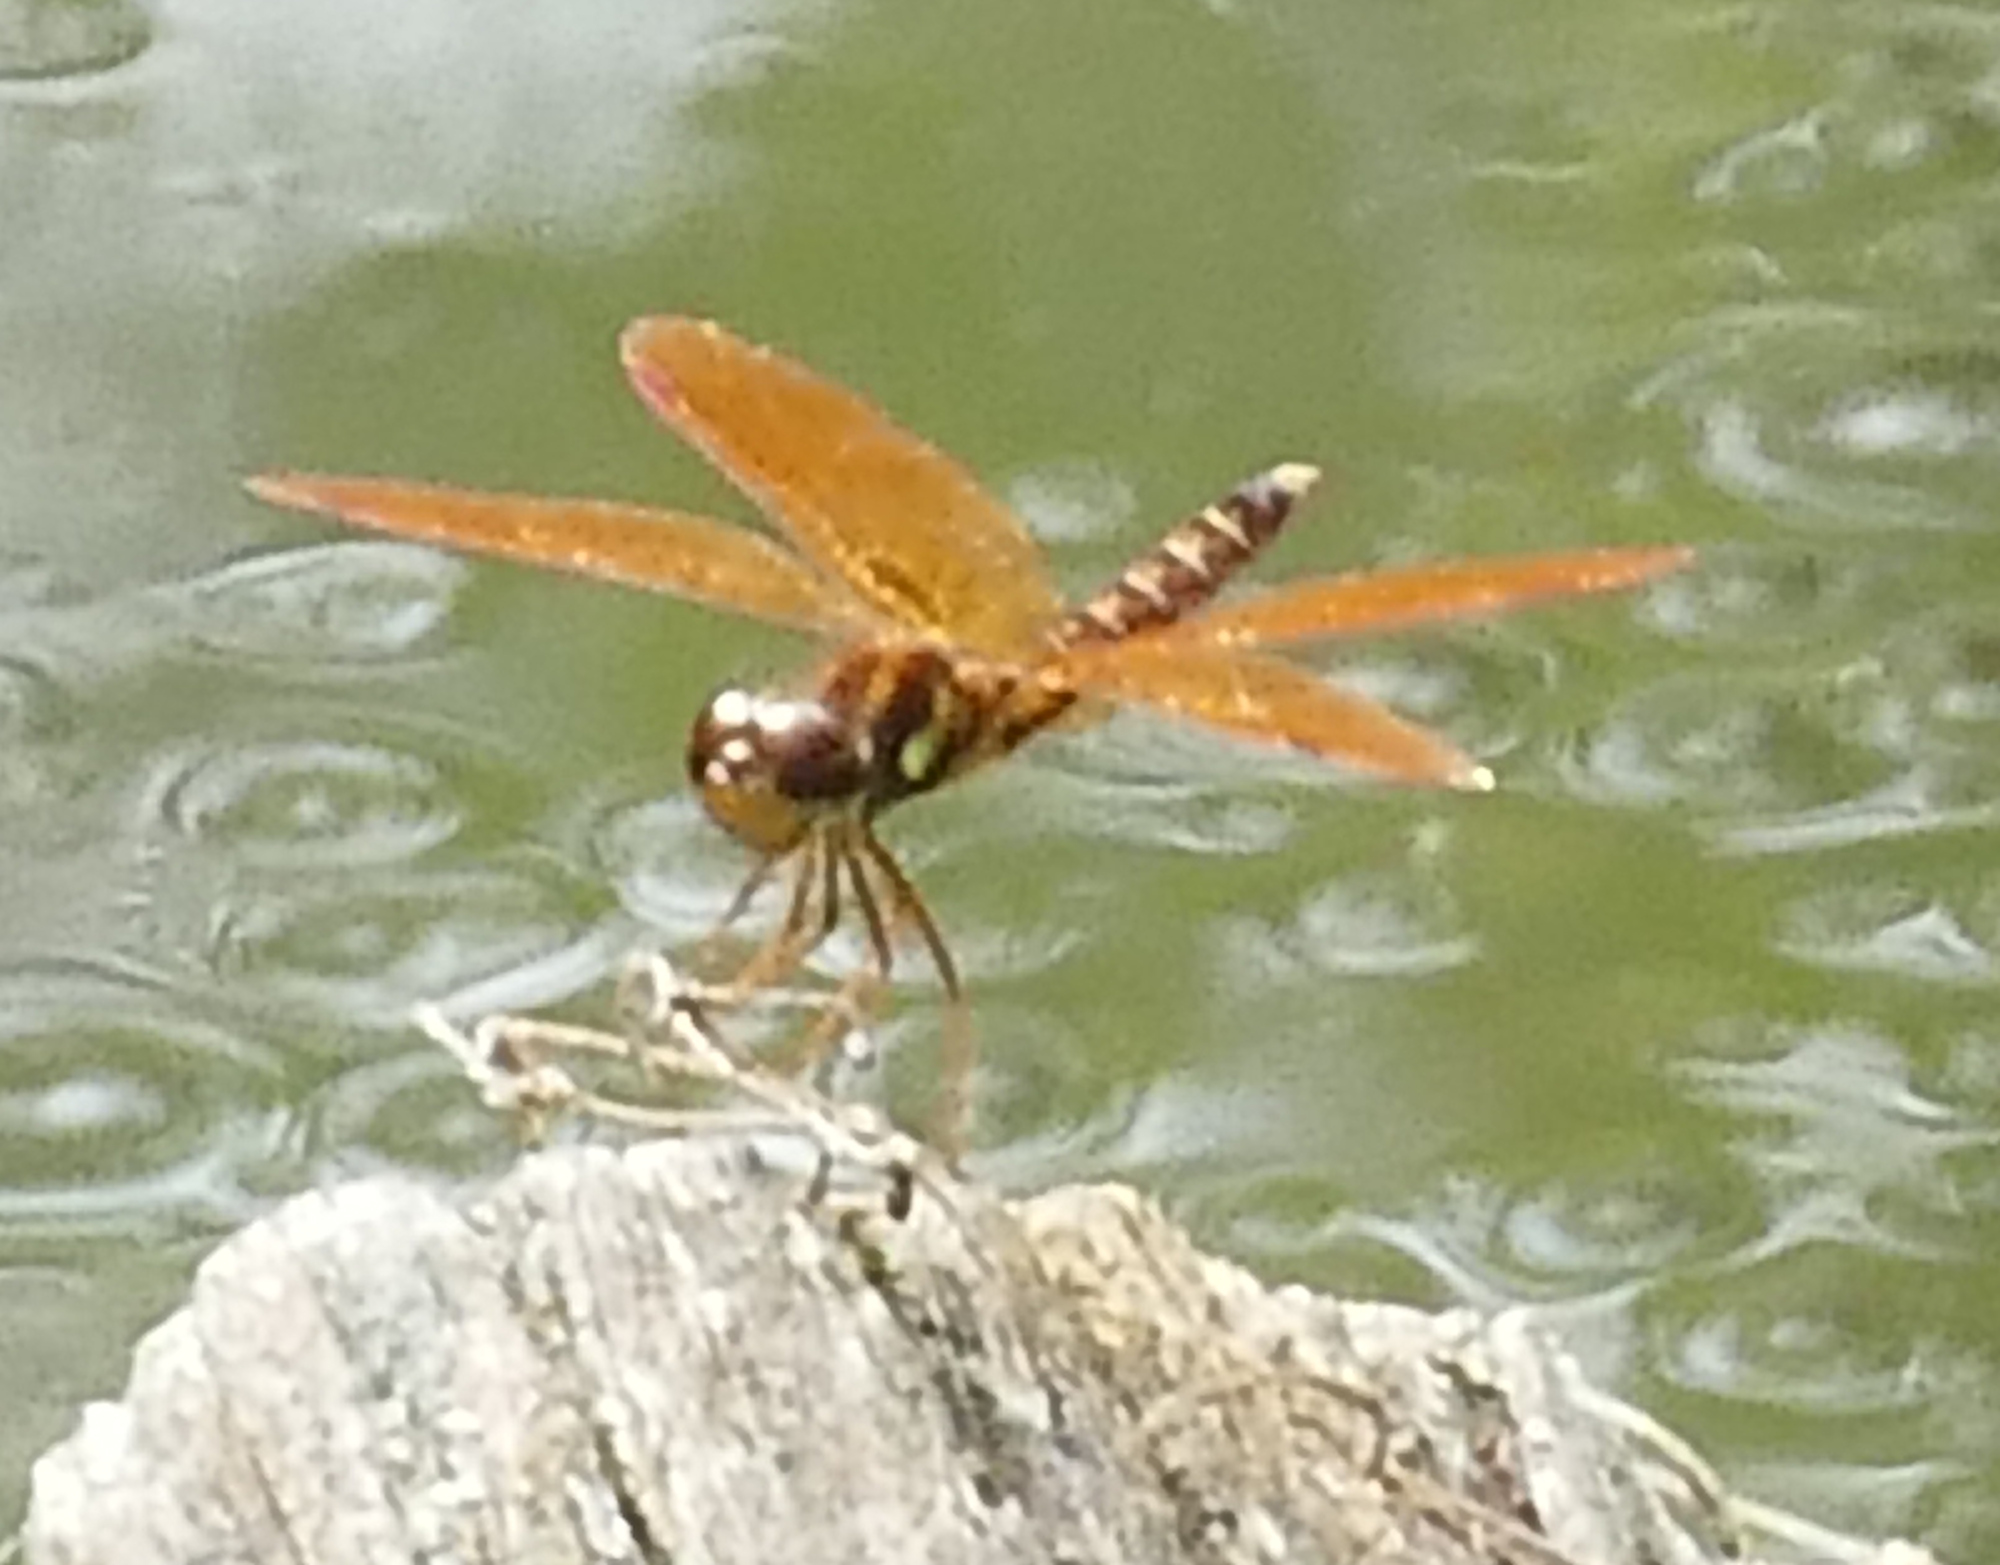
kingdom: Animalia
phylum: Arthropoda
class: Insecta
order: Odonata
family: Libellulidae
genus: Perithemis
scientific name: Perithemis tenera
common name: Eastern amberwing
